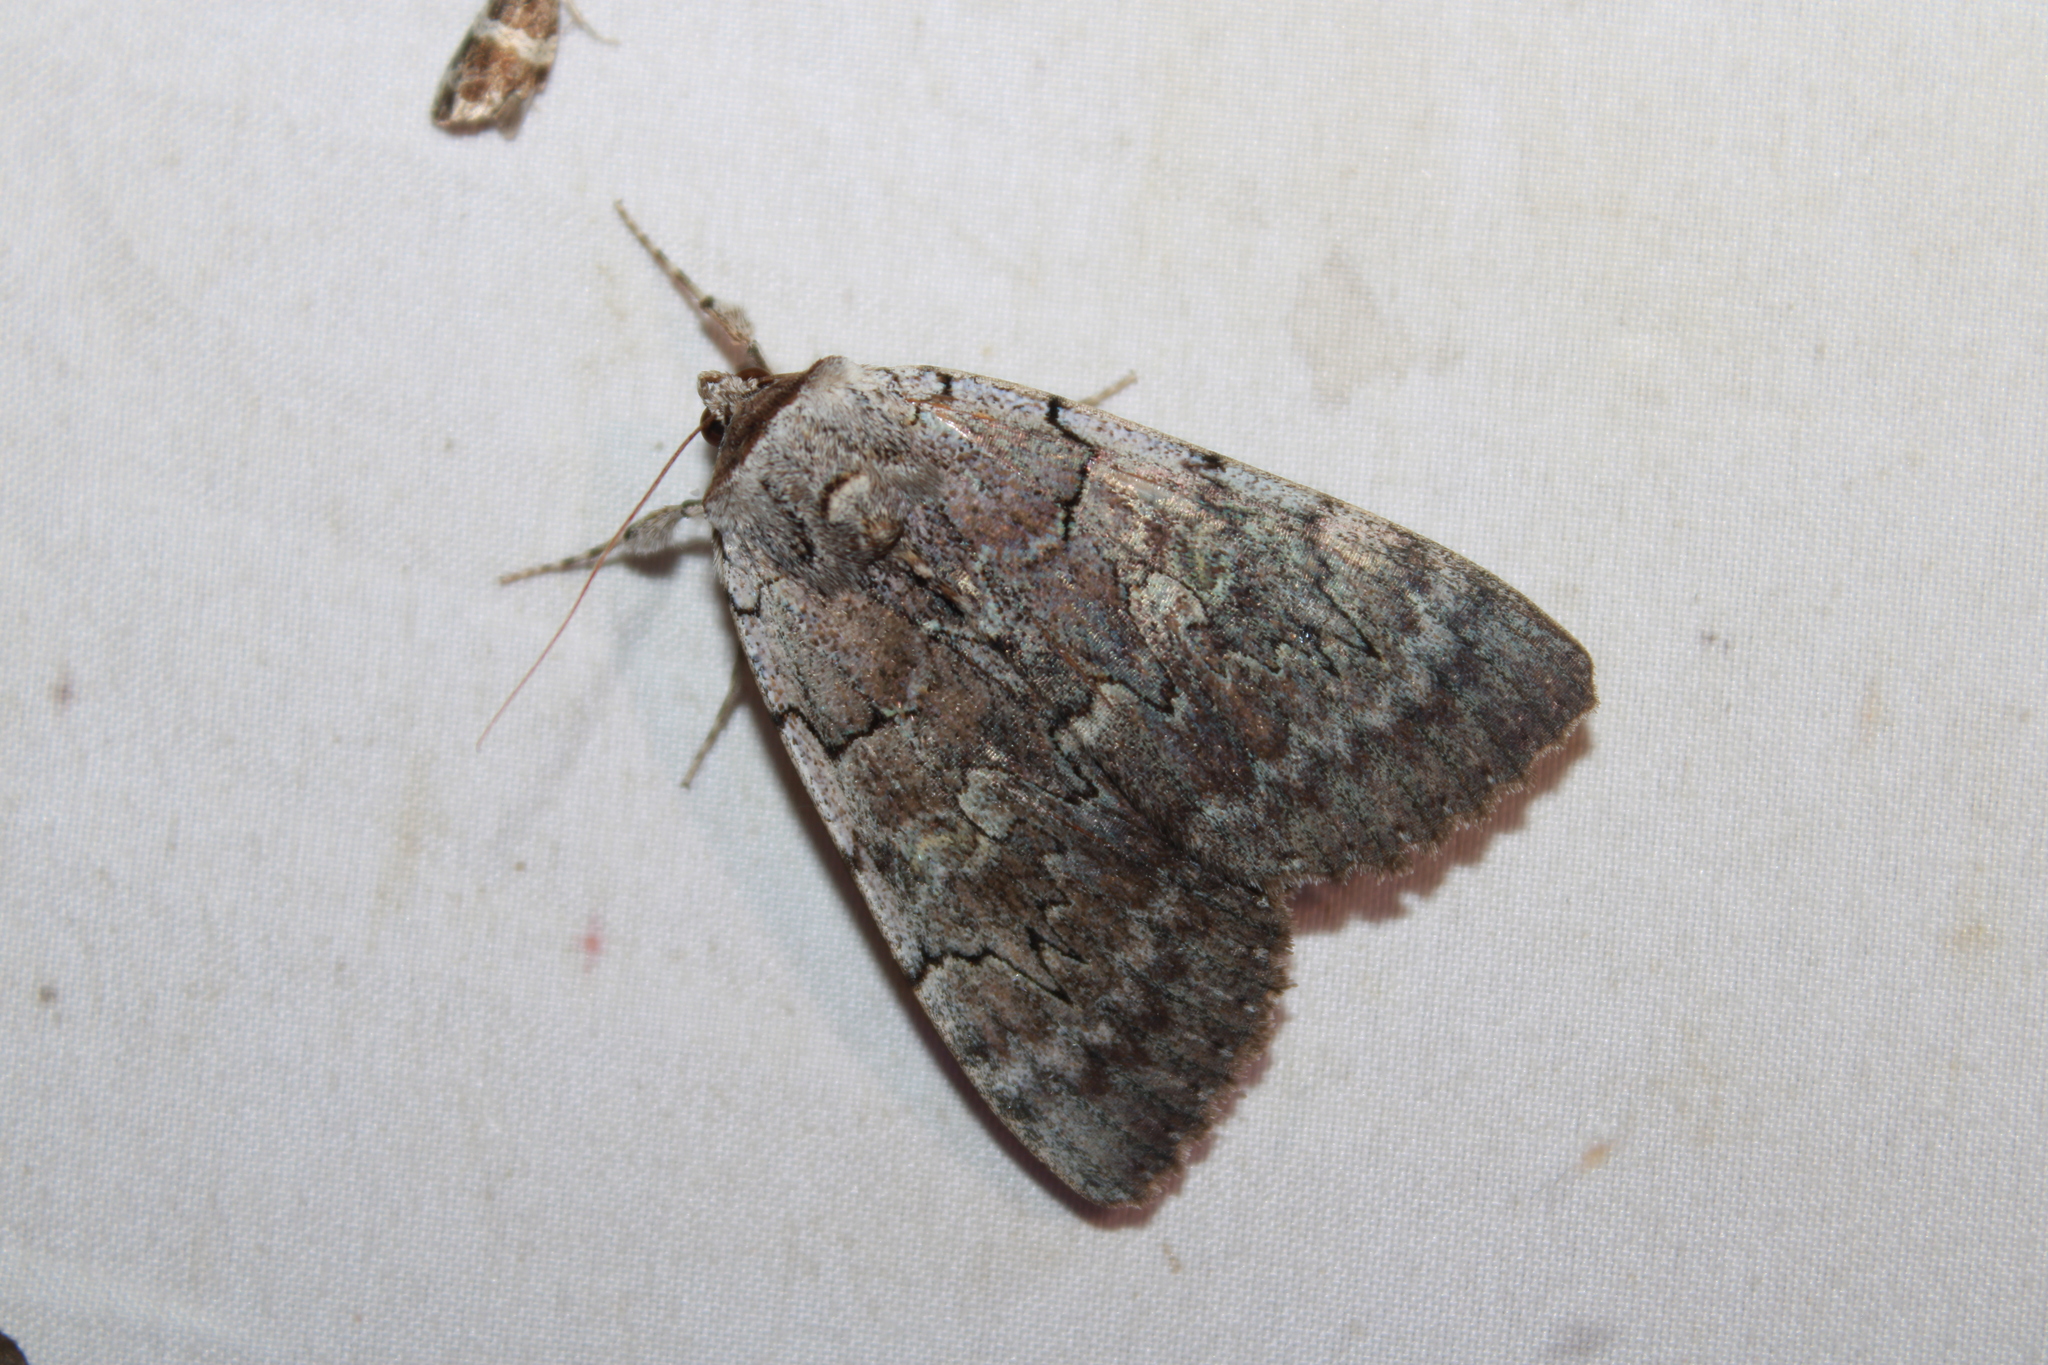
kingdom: Animalia
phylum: Arthropoda
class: Insecta
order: Lepidoptera
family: Erebidae
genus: Catocala
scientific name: Catocala concumbens
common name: Pink underwing
